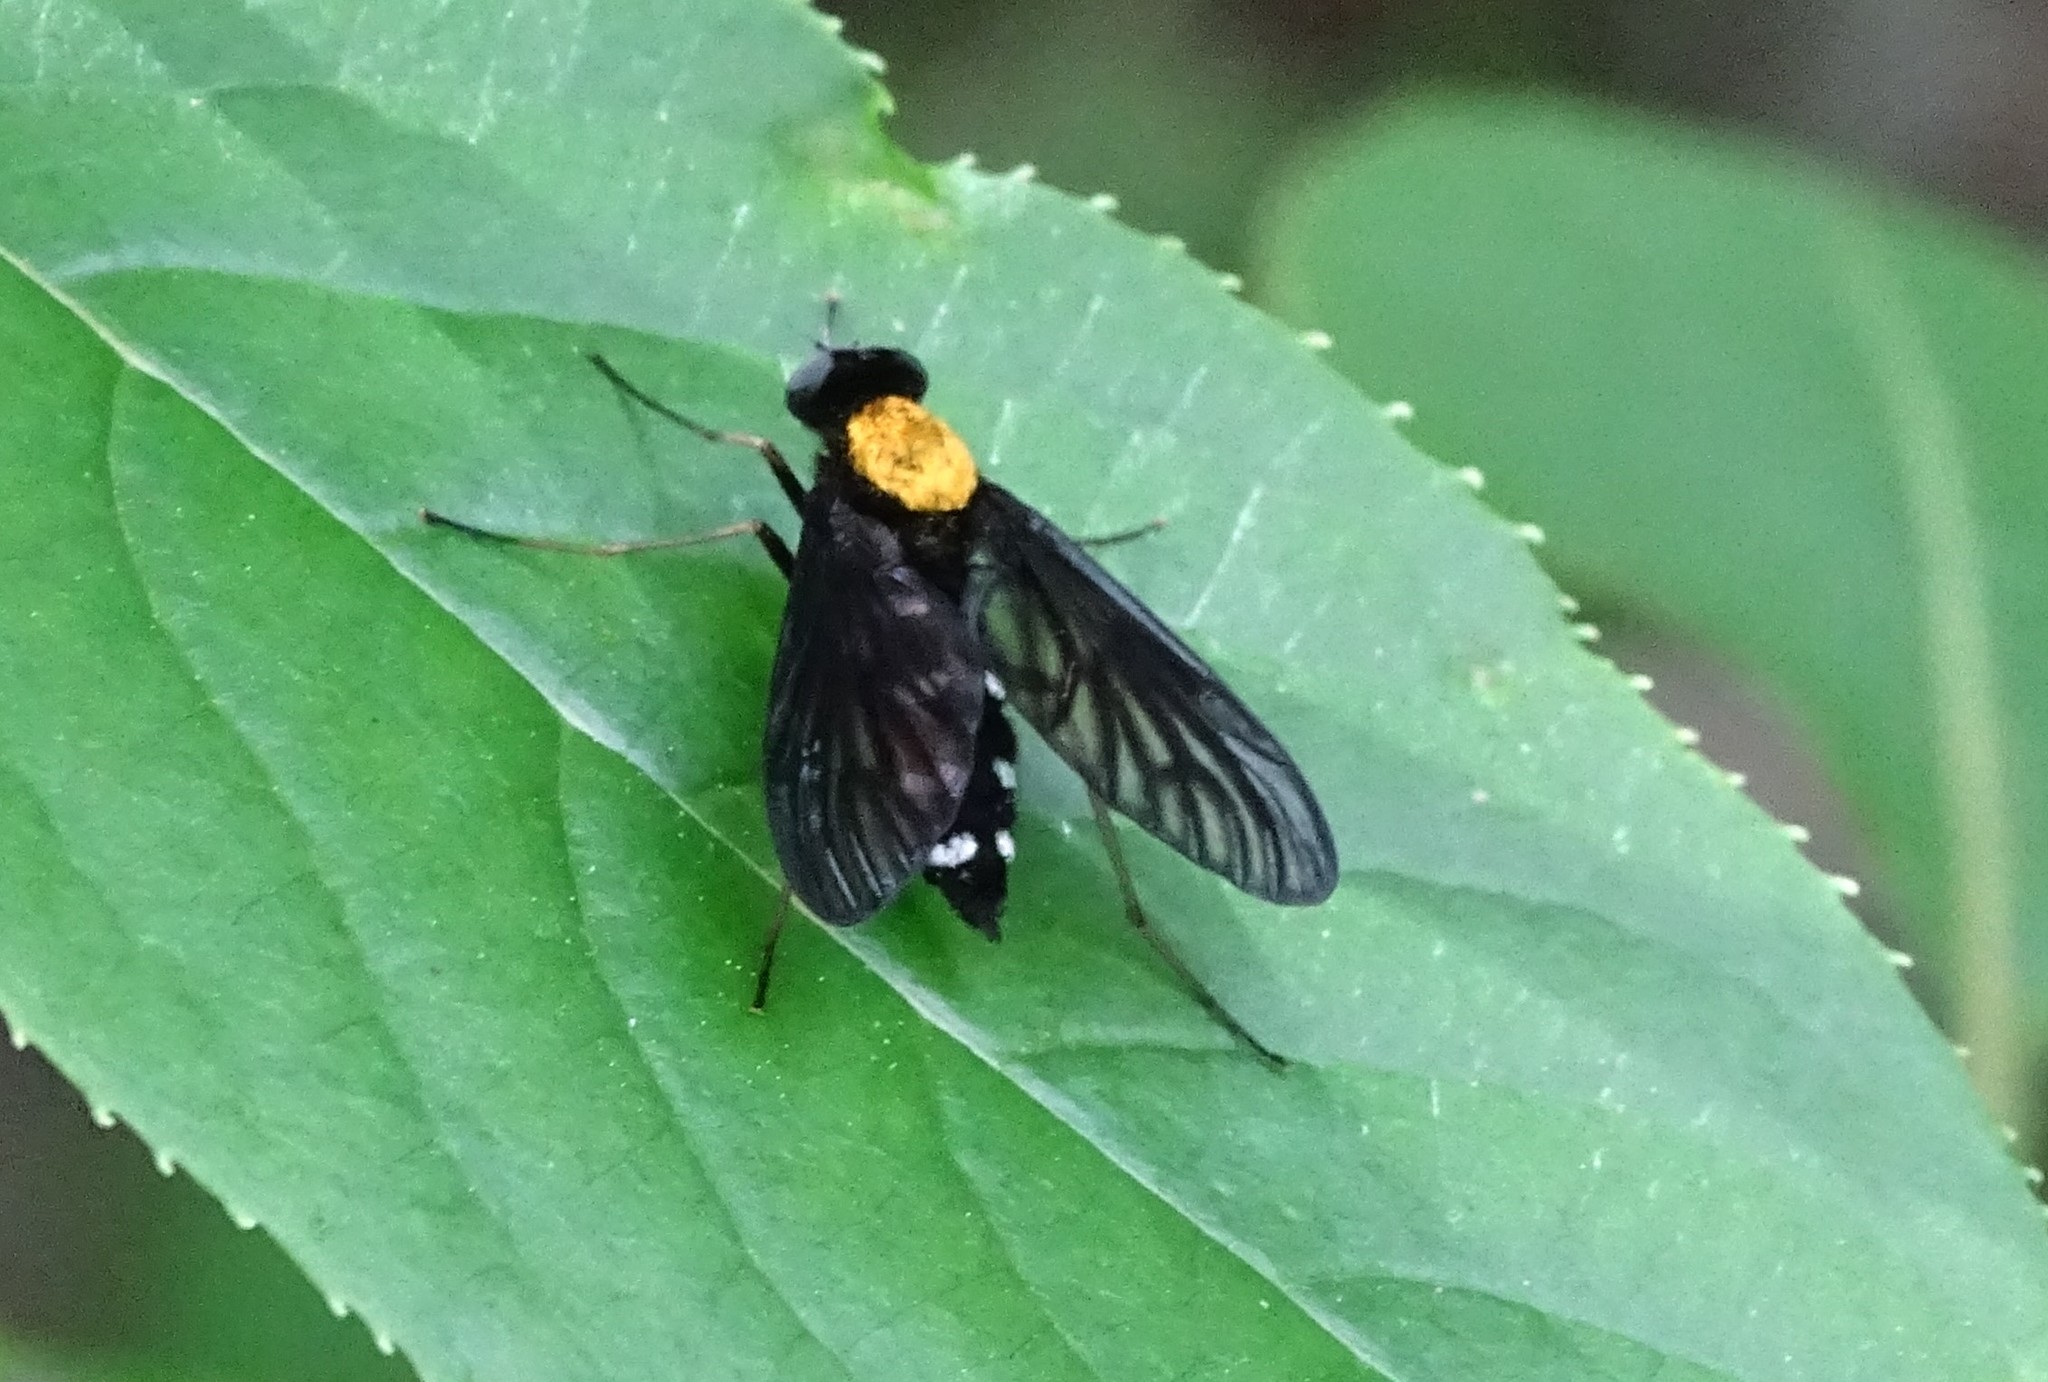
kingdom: Animalia
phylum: Arthropoda
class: Insecta
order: Diptera
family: Rhagionidae
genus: Chrysopilus
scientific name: Chrysopilus thoracicus
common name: Golden-backed snipe fly
